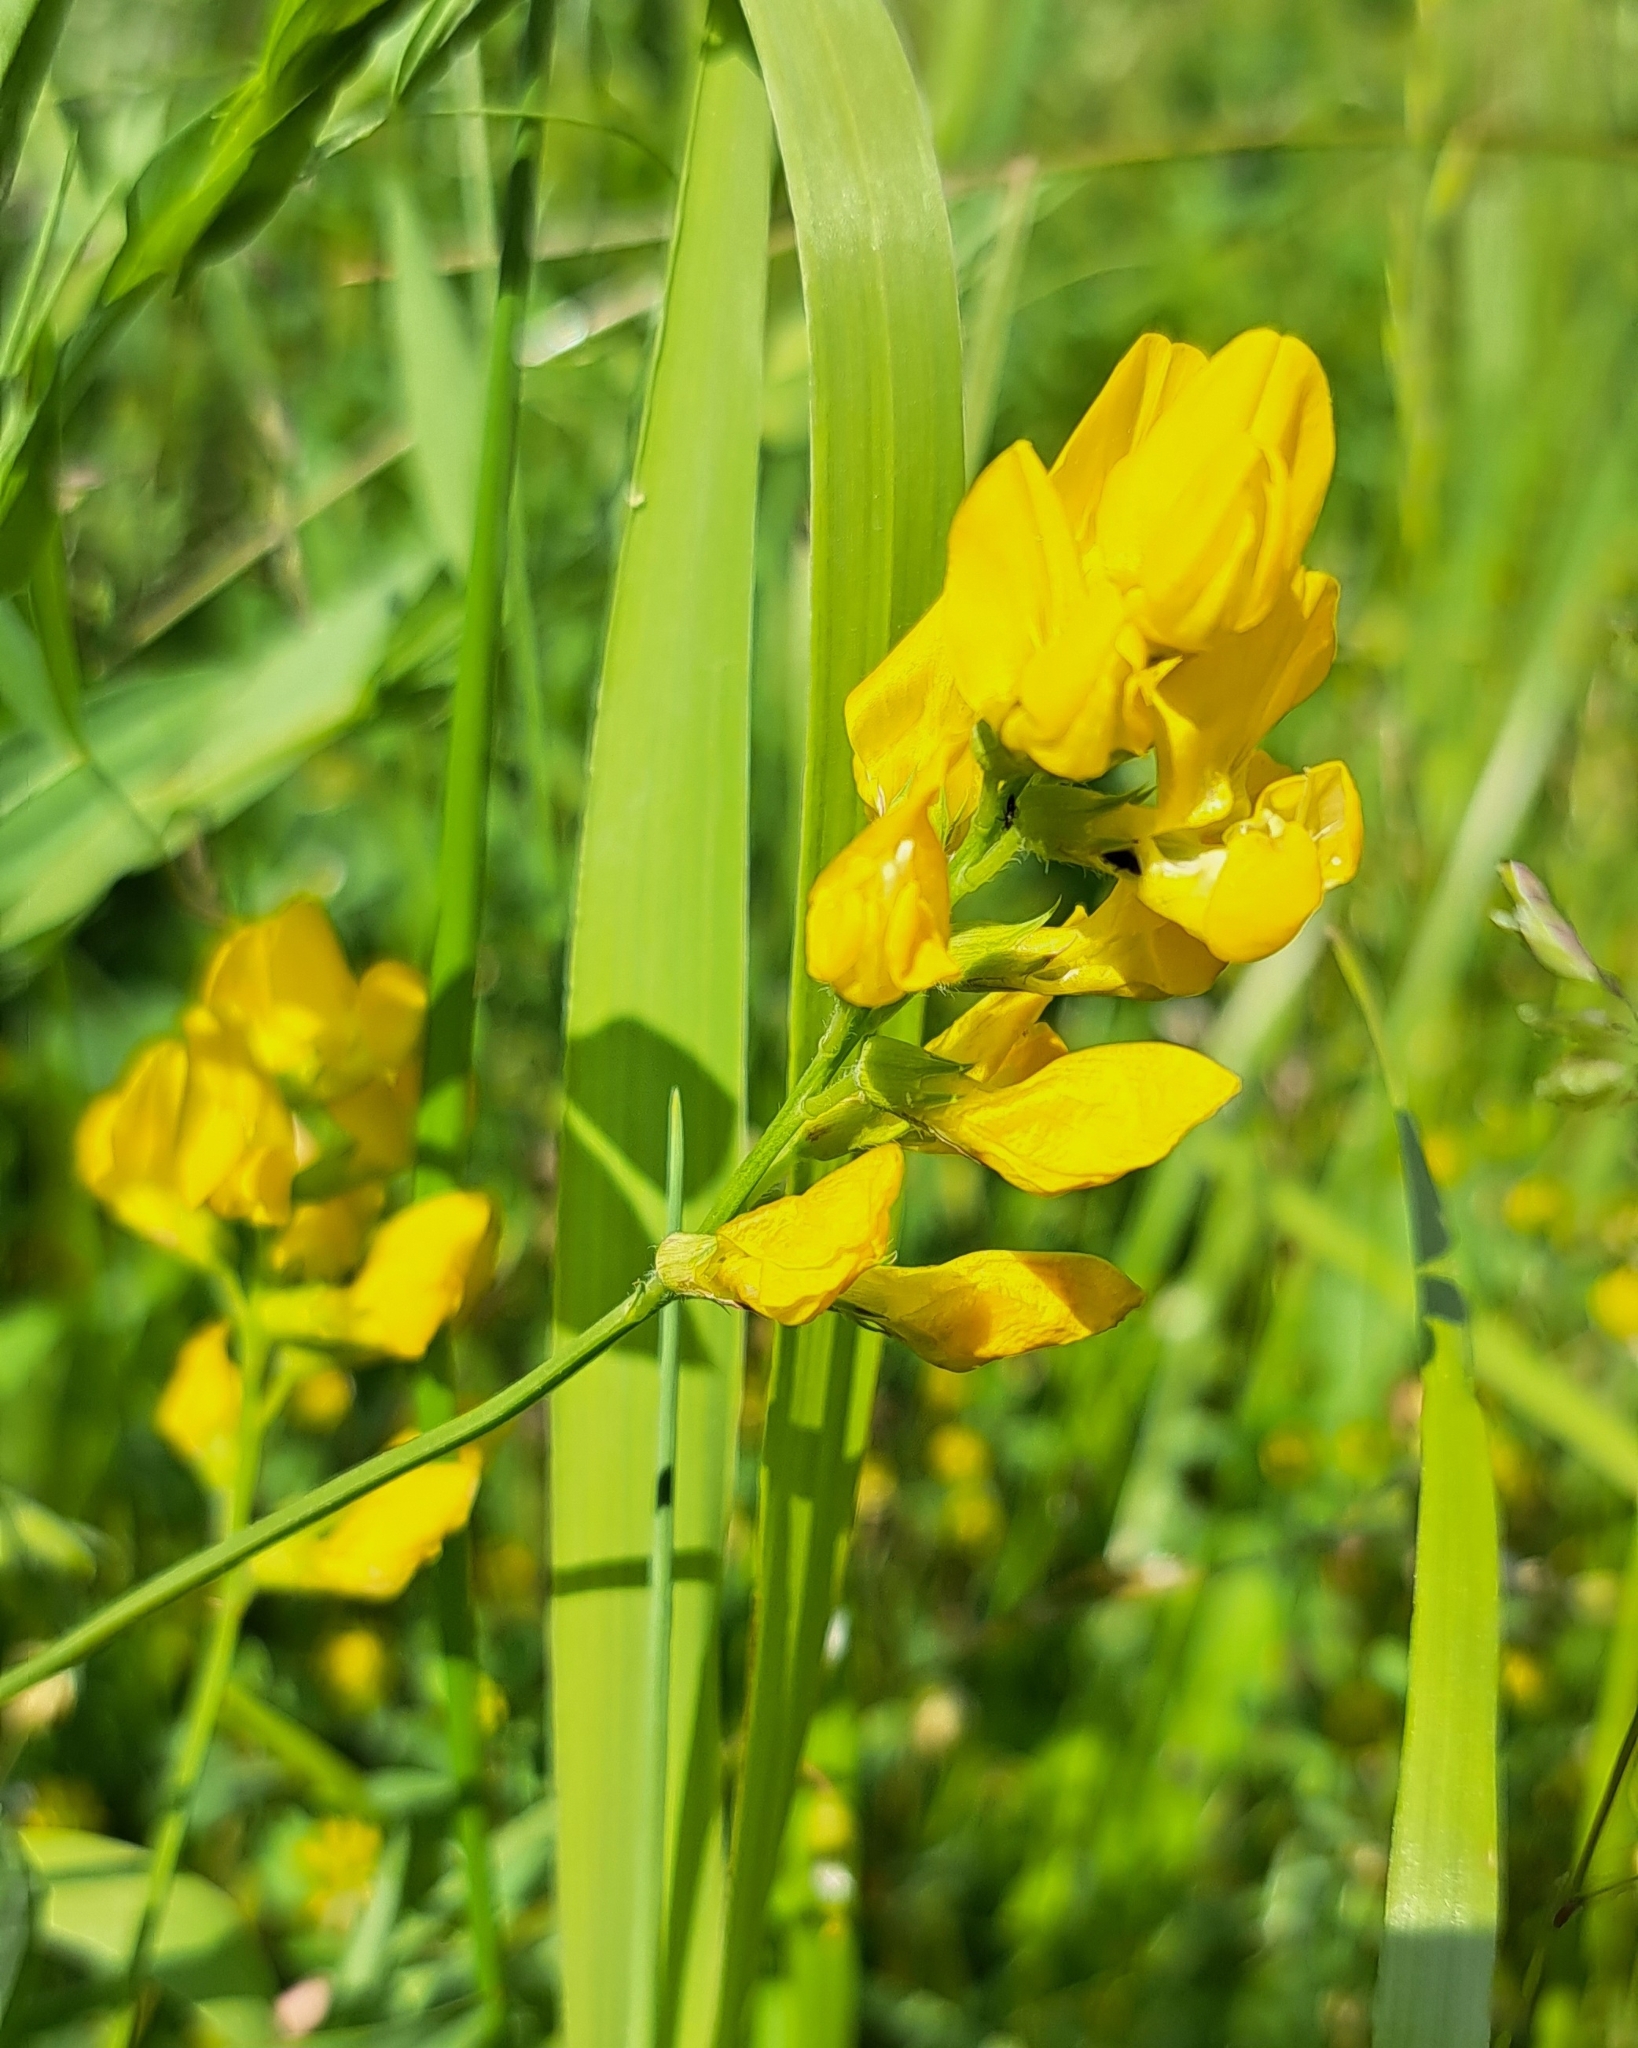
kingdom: Plantae
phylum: Tracheophyta
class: Magnoliopsida
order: Fabales
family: Fabaceae
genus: Lathyrus
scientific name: Lathyrus pratensis
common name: Meadow vetchling
